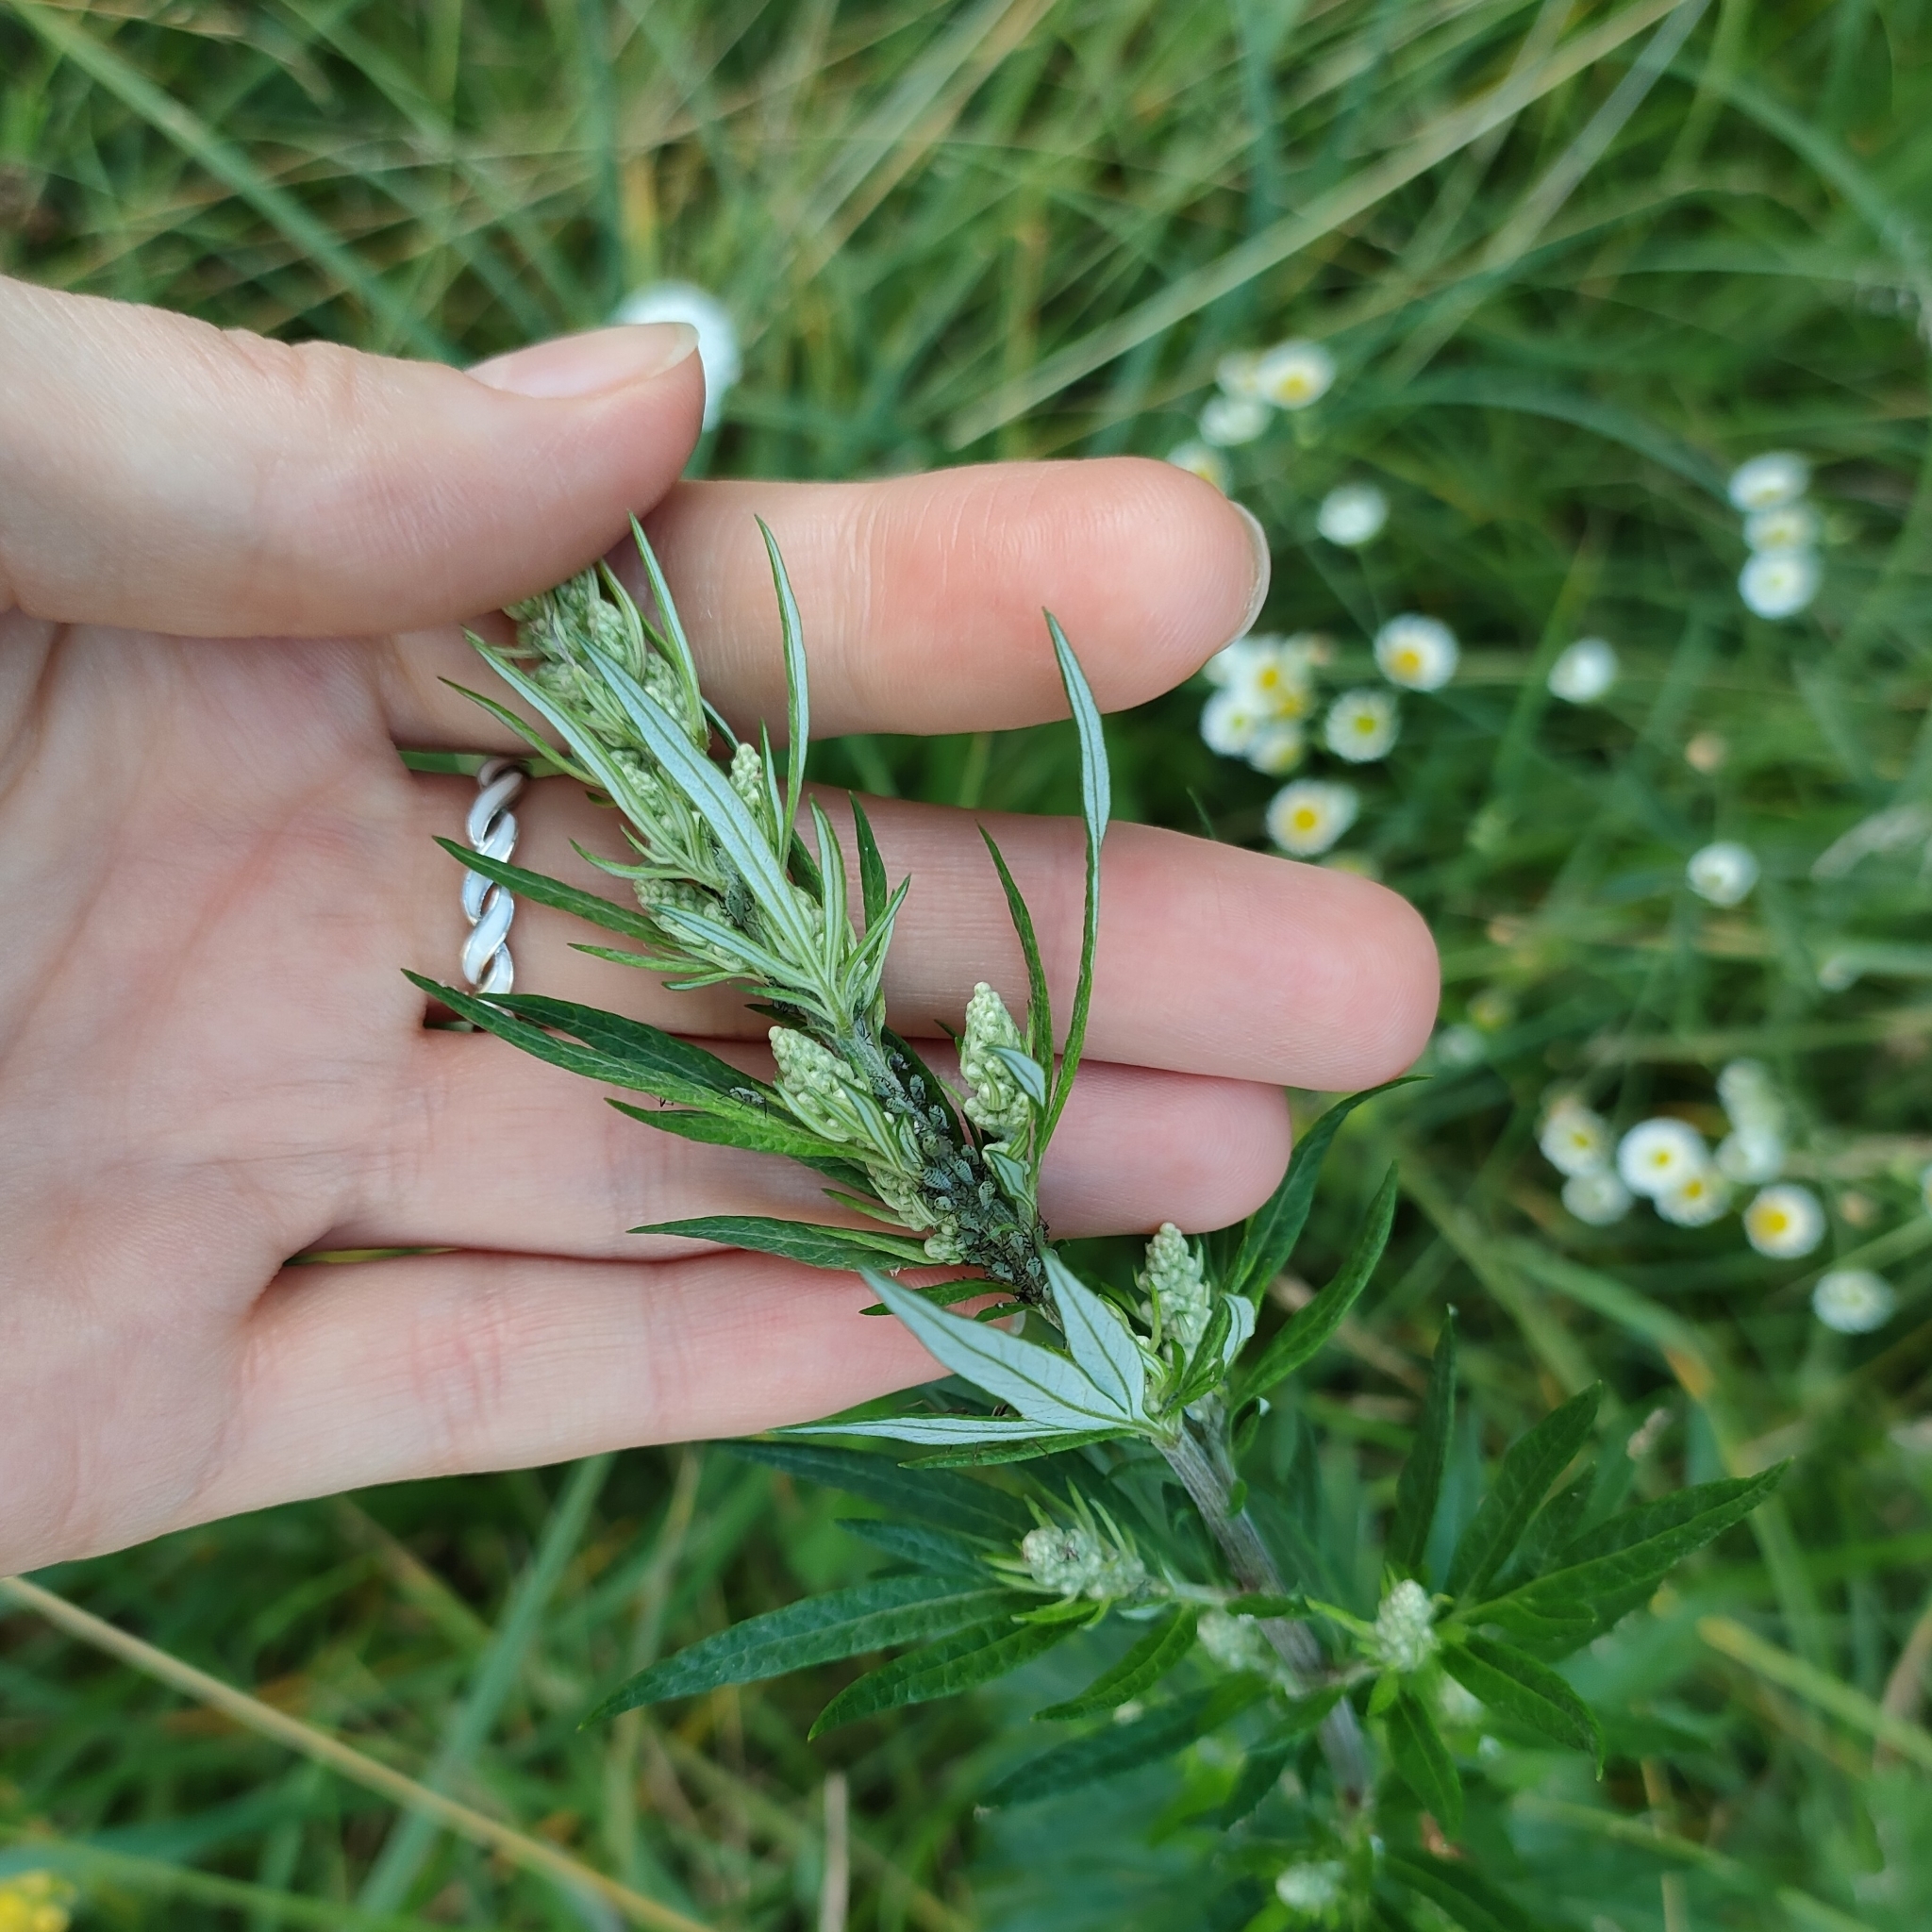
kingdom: Plantae
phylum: Tracheophyta
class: Magnoliopsida
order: Asterales
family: Asteraceae
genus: Artemisia
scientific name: Artemisia vulgaris
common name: Mugwort
